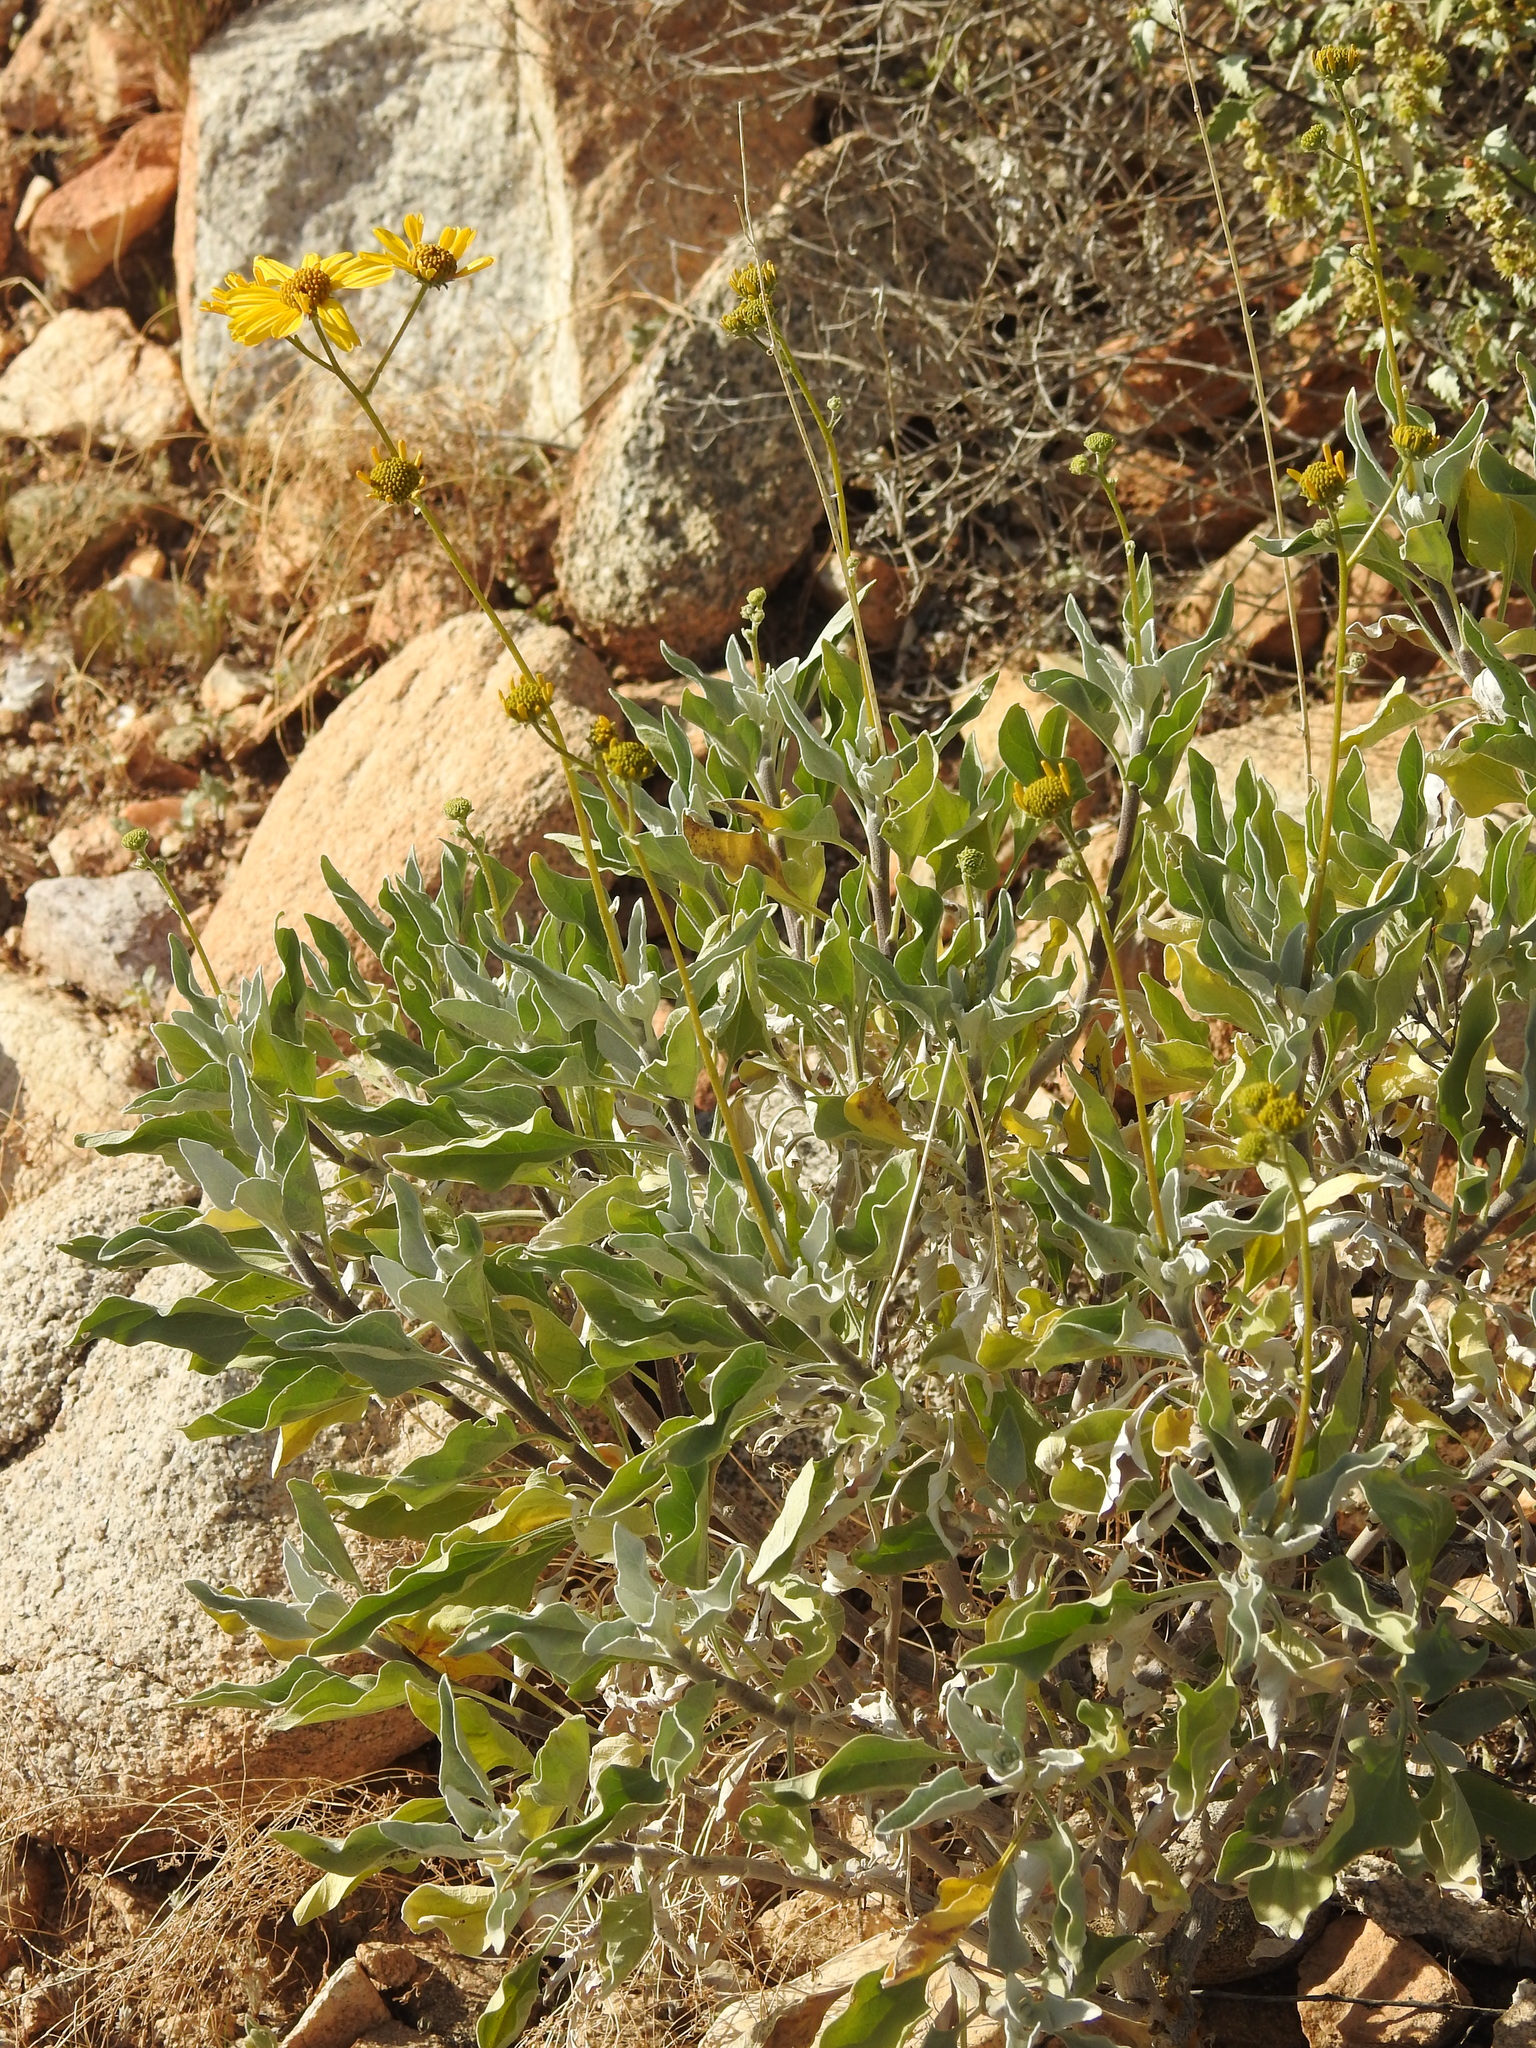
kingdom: Plantae
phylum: Tracheophyta
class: Magnoliopsida
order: Asterales
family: Asteraceae
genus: Encelia
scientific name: Encelia farinosa
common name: Brittlebush
